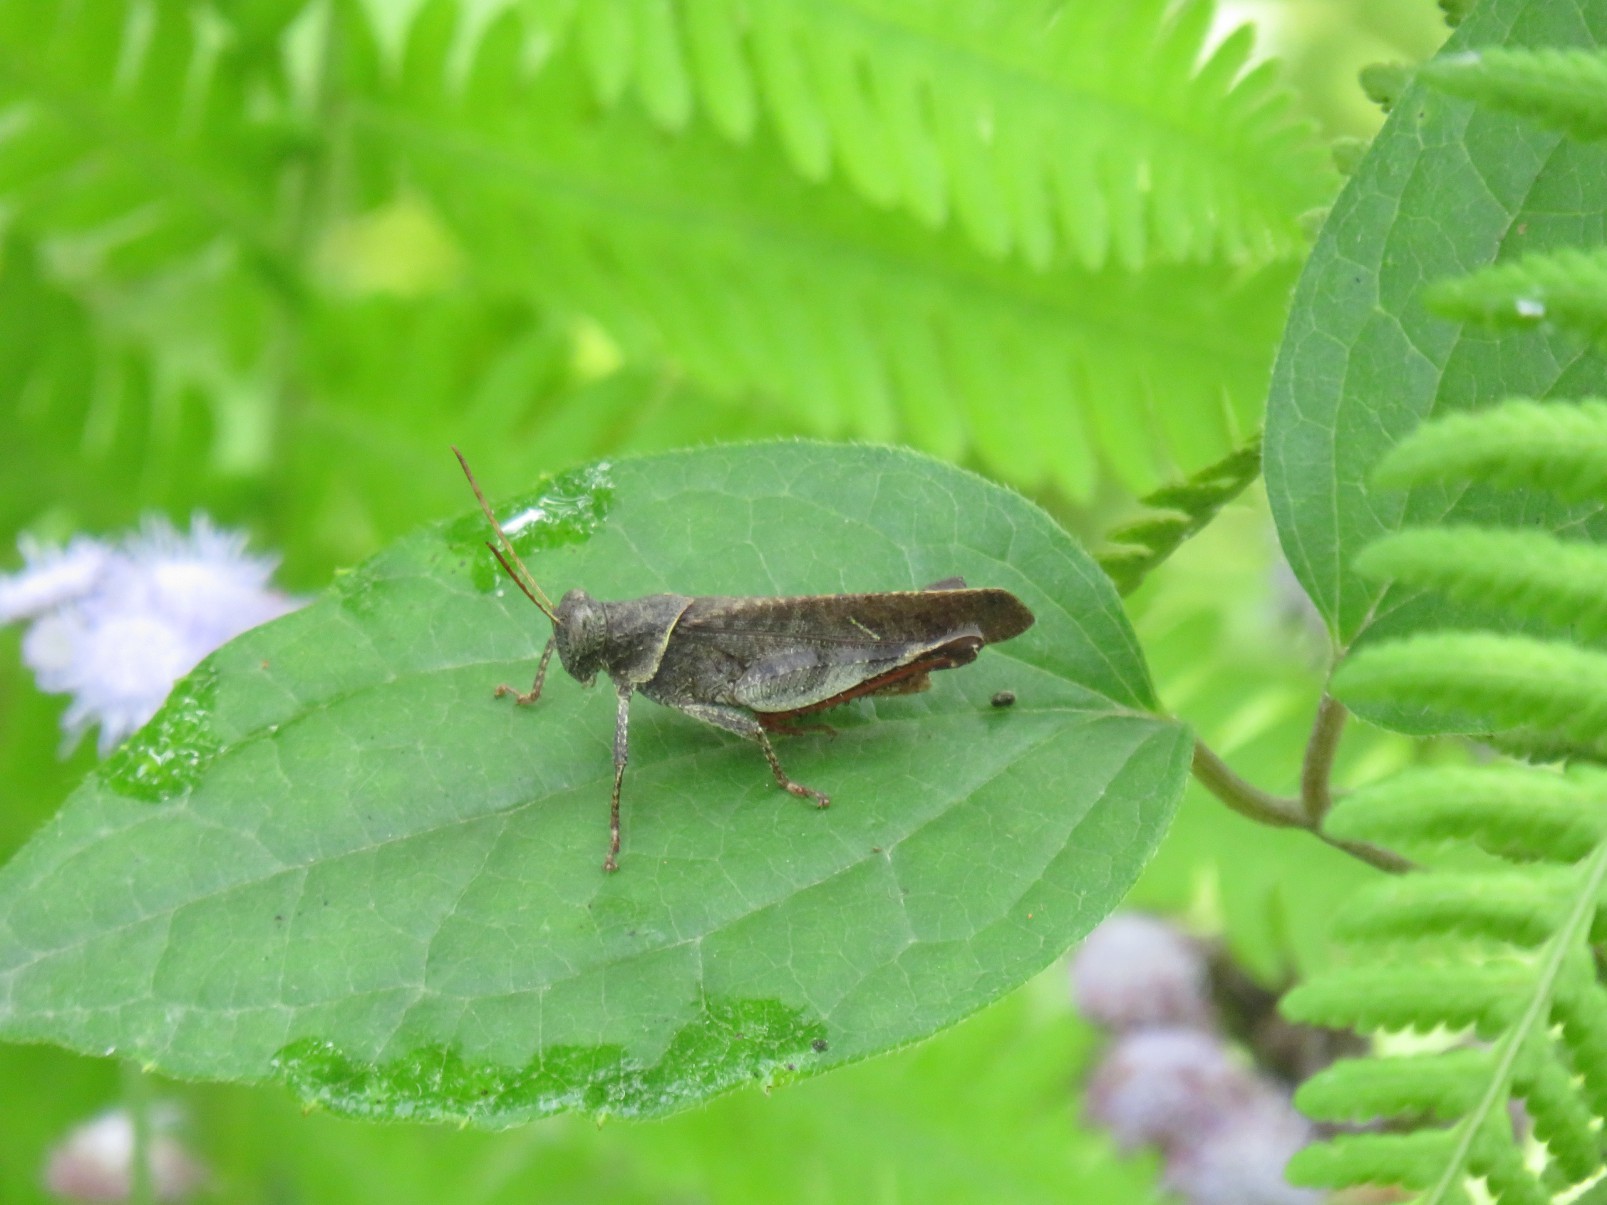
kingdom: Animalia
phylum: Arthropoda
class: Insecta
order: Orthoptera
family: Acrididae
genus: Eucoptacra
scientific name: Eucoptacra binghami
